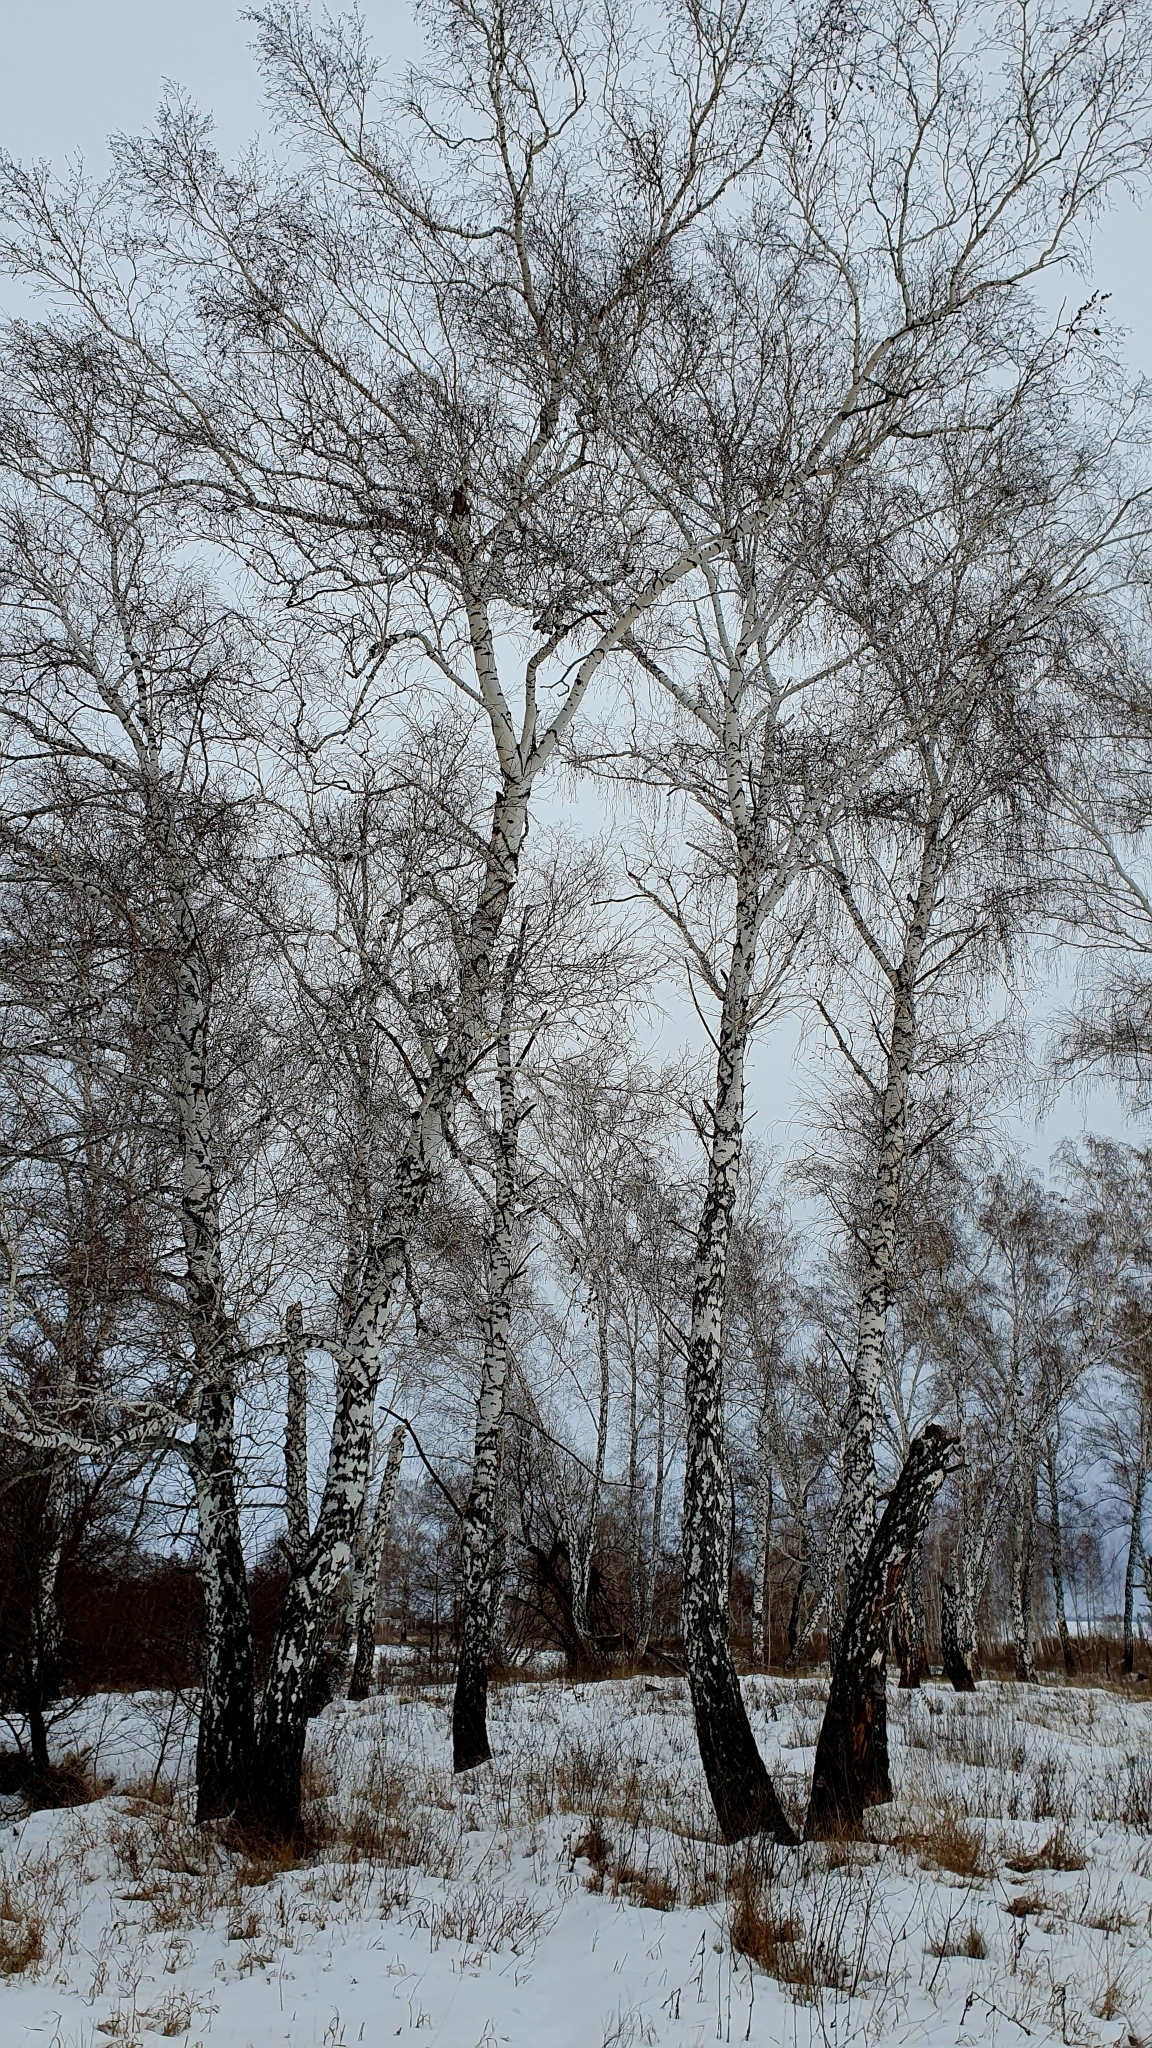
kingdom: Plantae
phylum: Tracheophyta
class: Magnoliopsida
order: Fagales
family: Betulaceae
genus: Betula
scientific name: Betula pendula
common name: Silver birch
